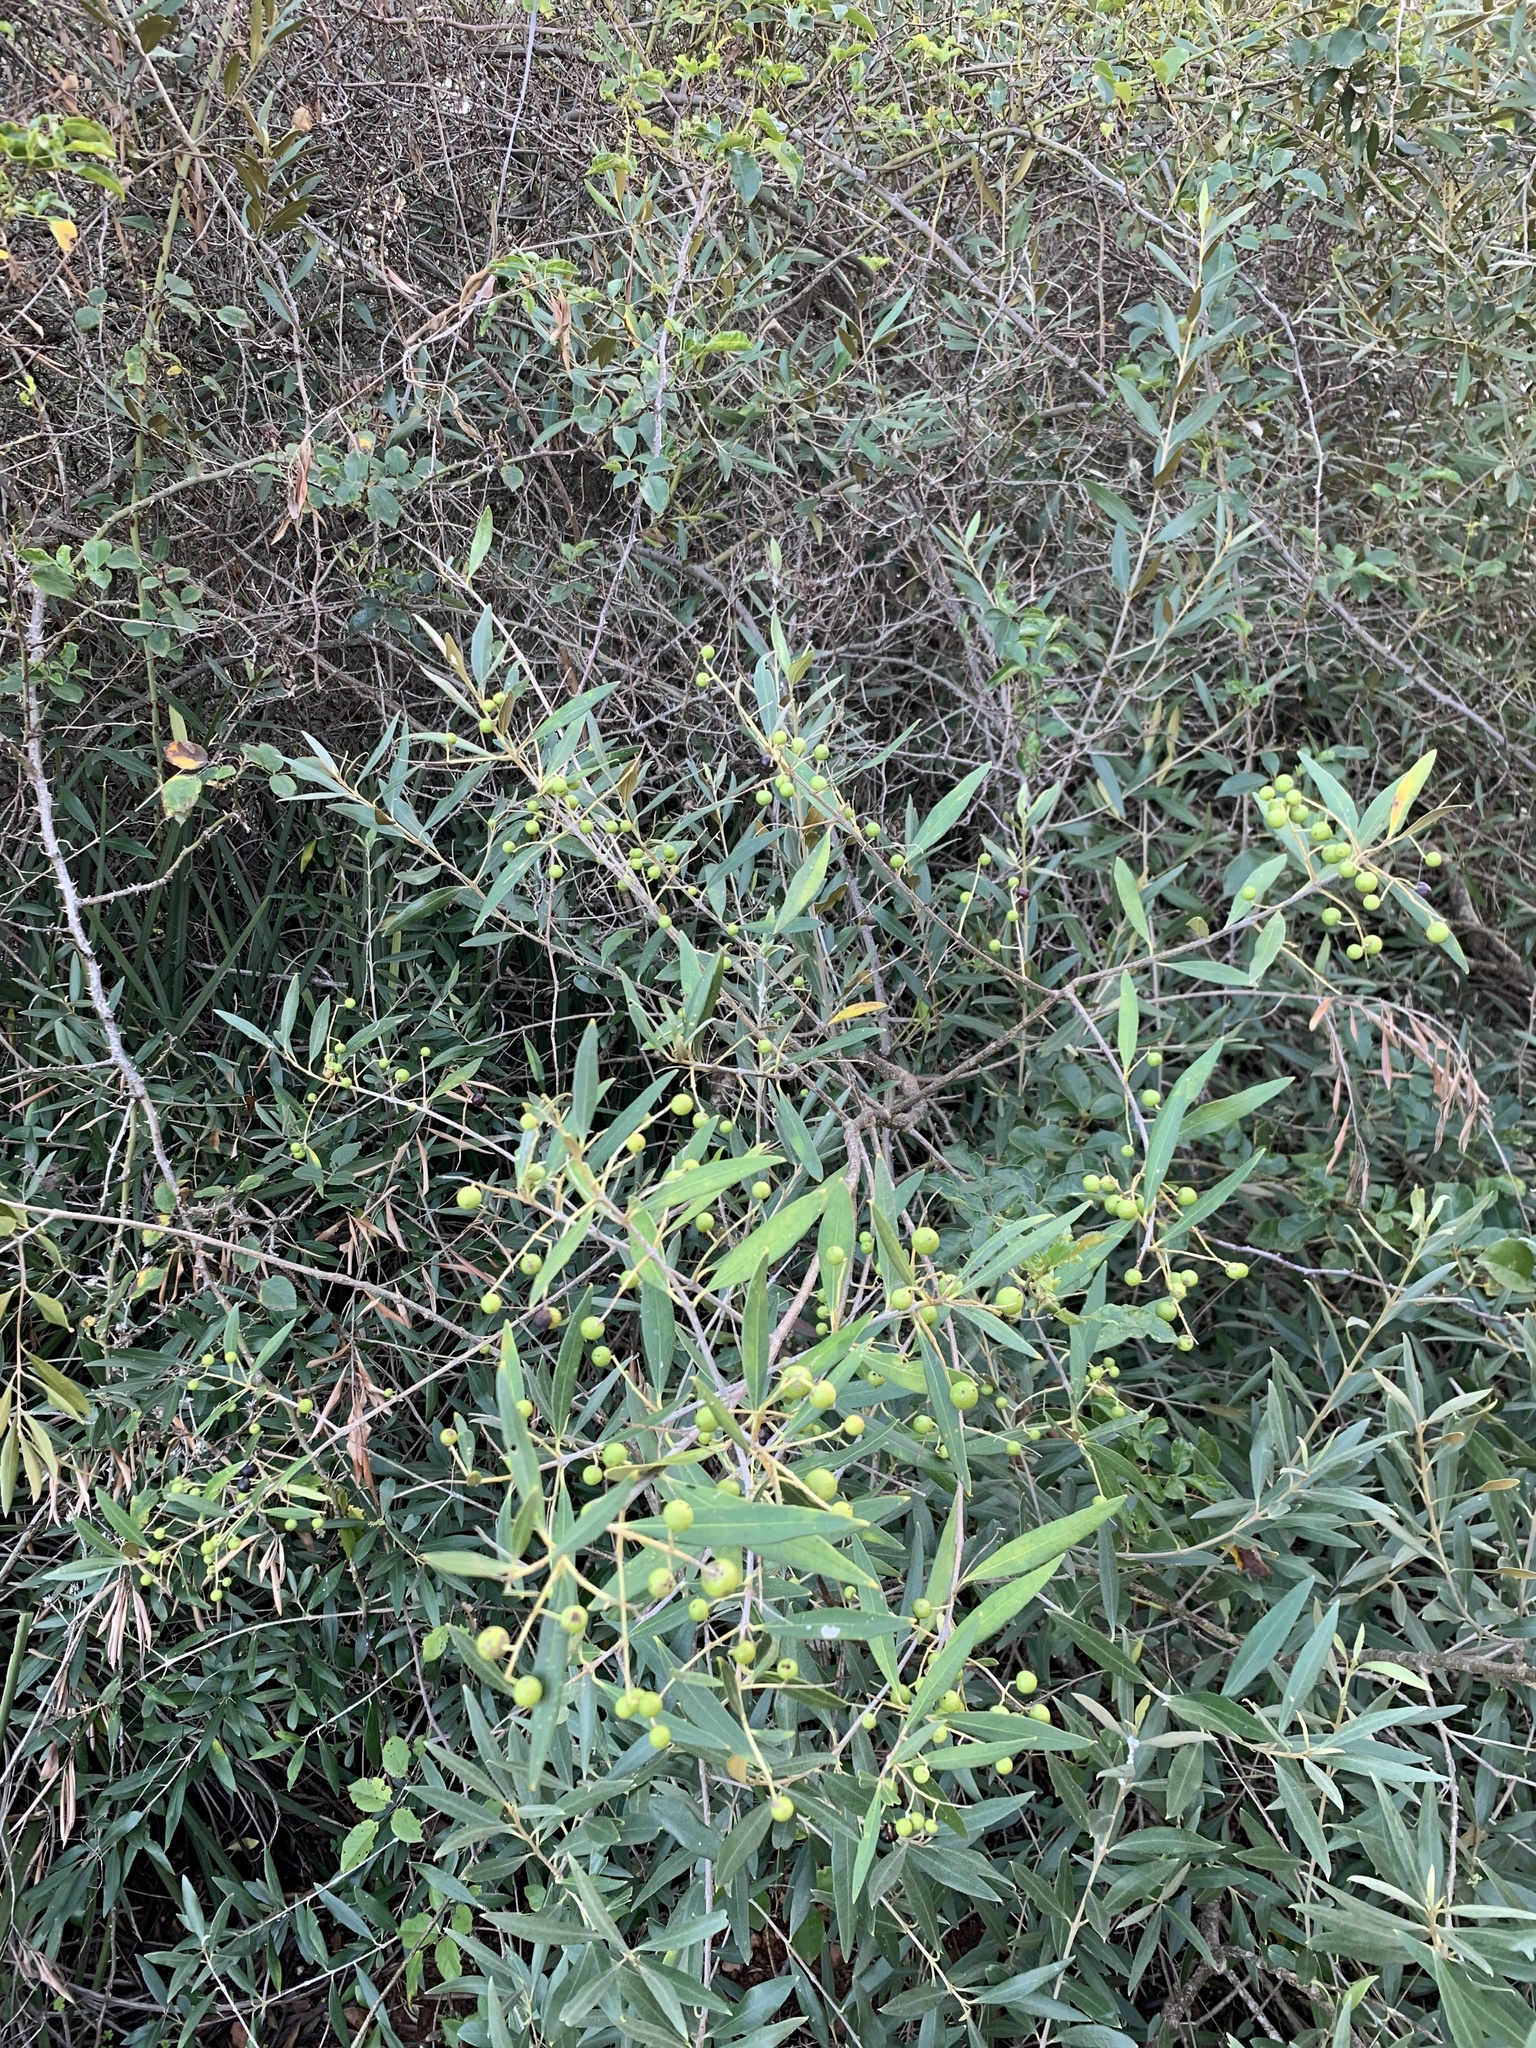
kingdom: Plantae
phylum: Tracheophyta
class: Magnoliopsida
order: Lamiales
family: Oleaceae
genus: Olea
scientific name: Olea europaea
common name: Olive
